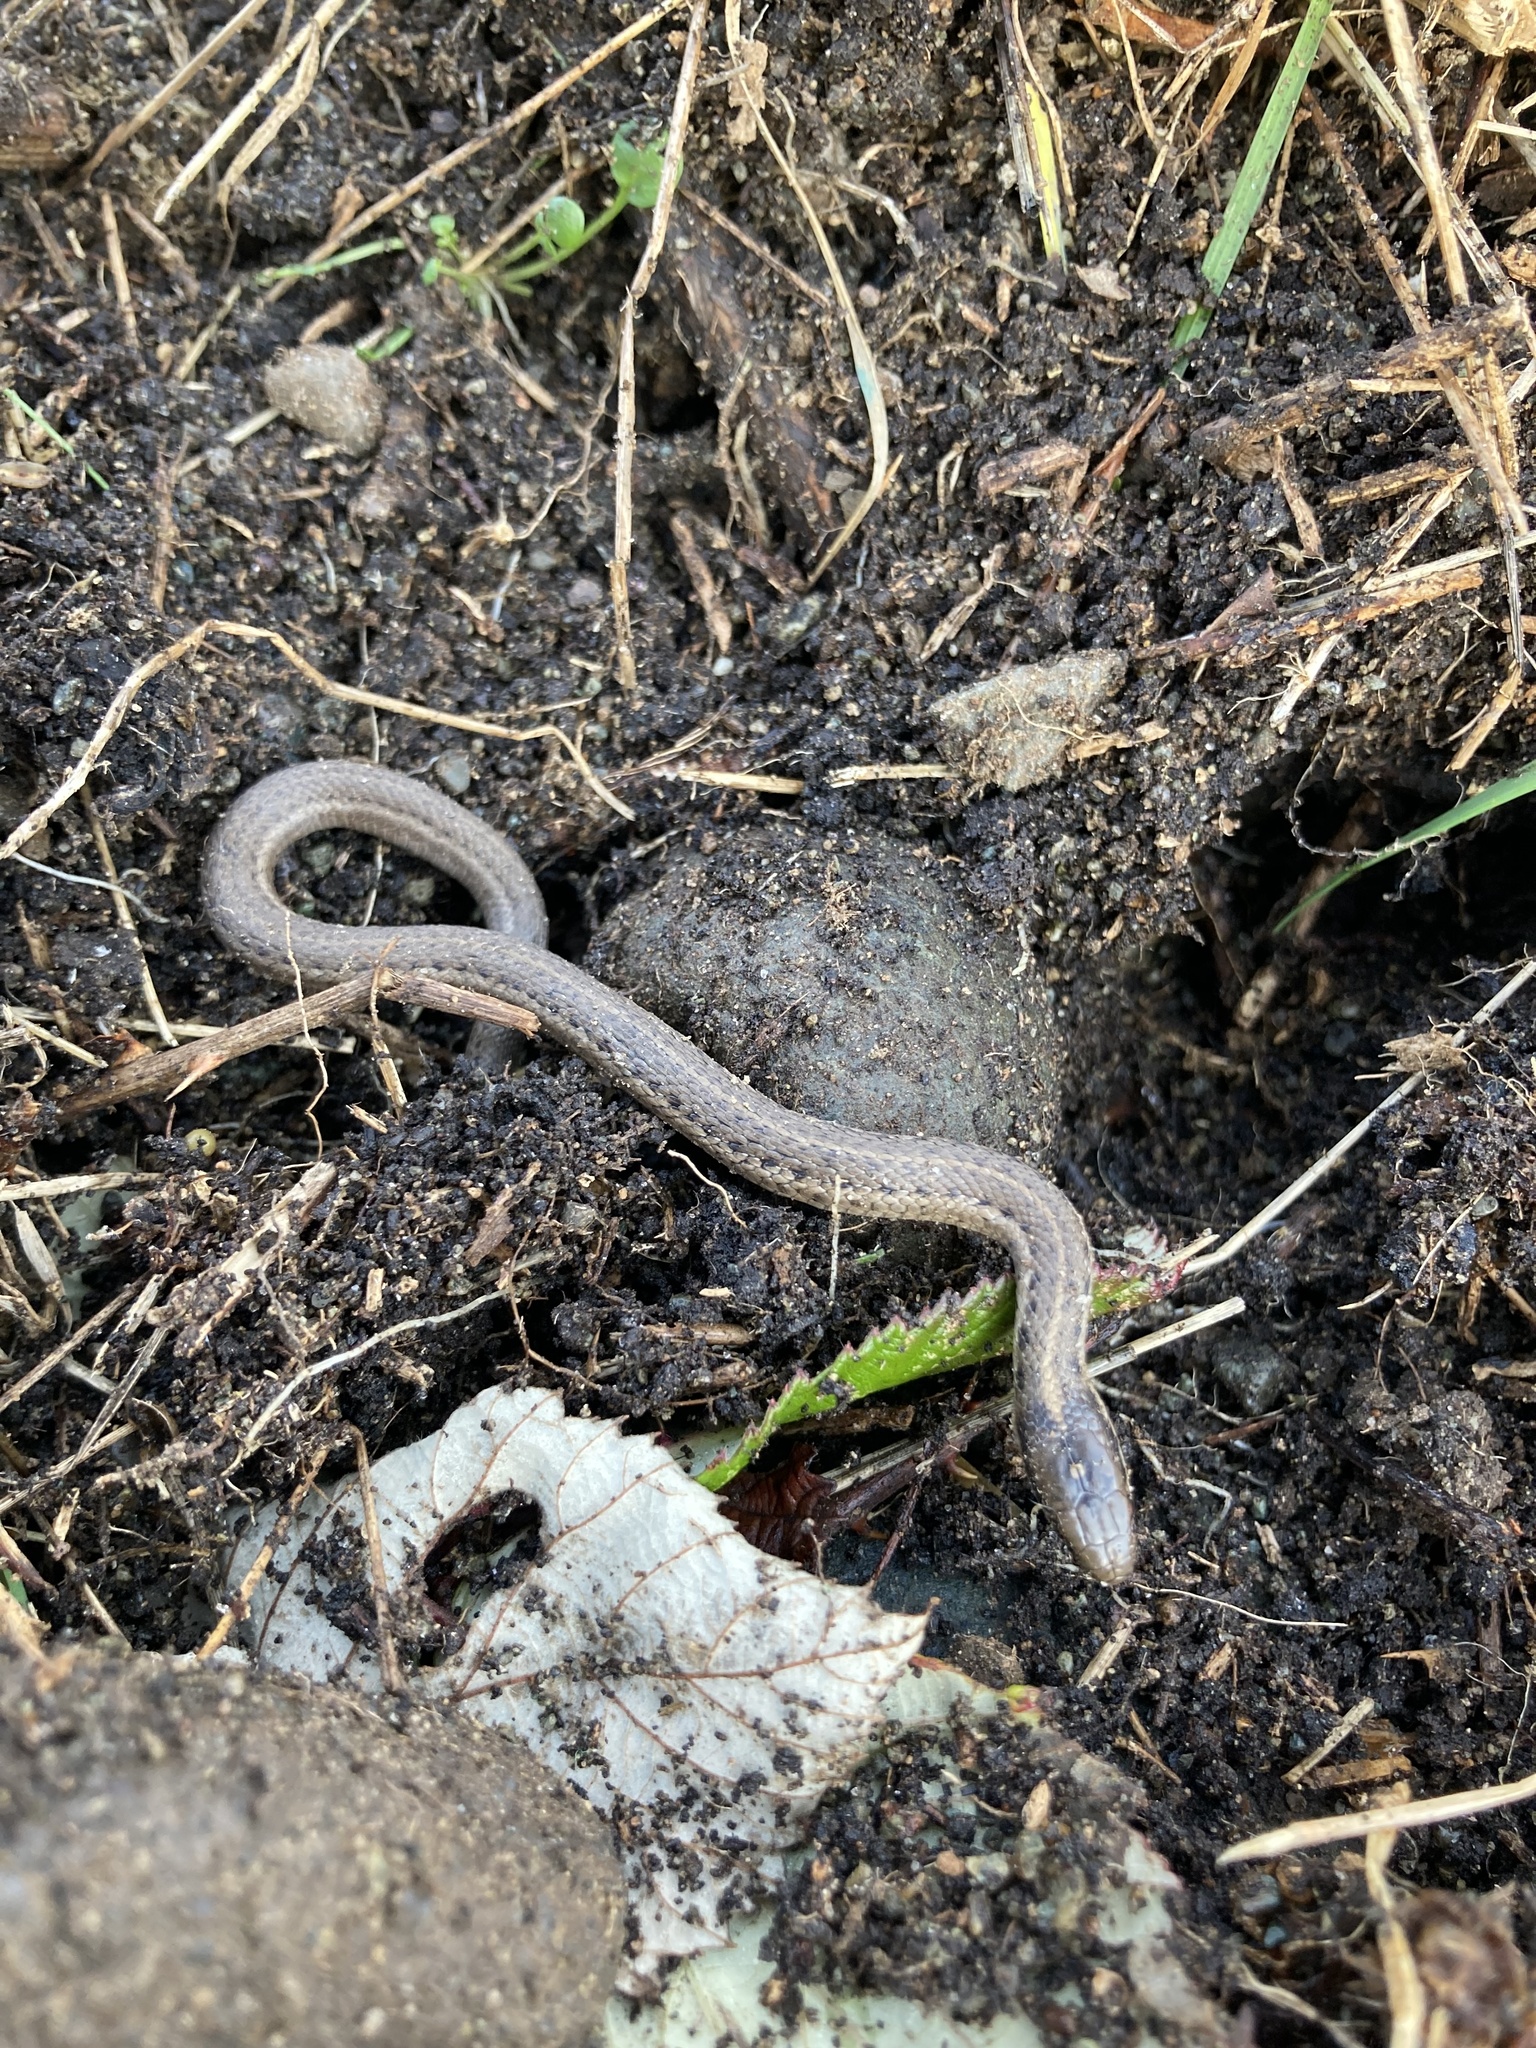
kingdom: Animalia
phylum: Chordata
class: Squamata
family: Colubridae
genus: Thamnophis
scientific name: Thamnophis ordinoides
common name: Northwestern garter snake
